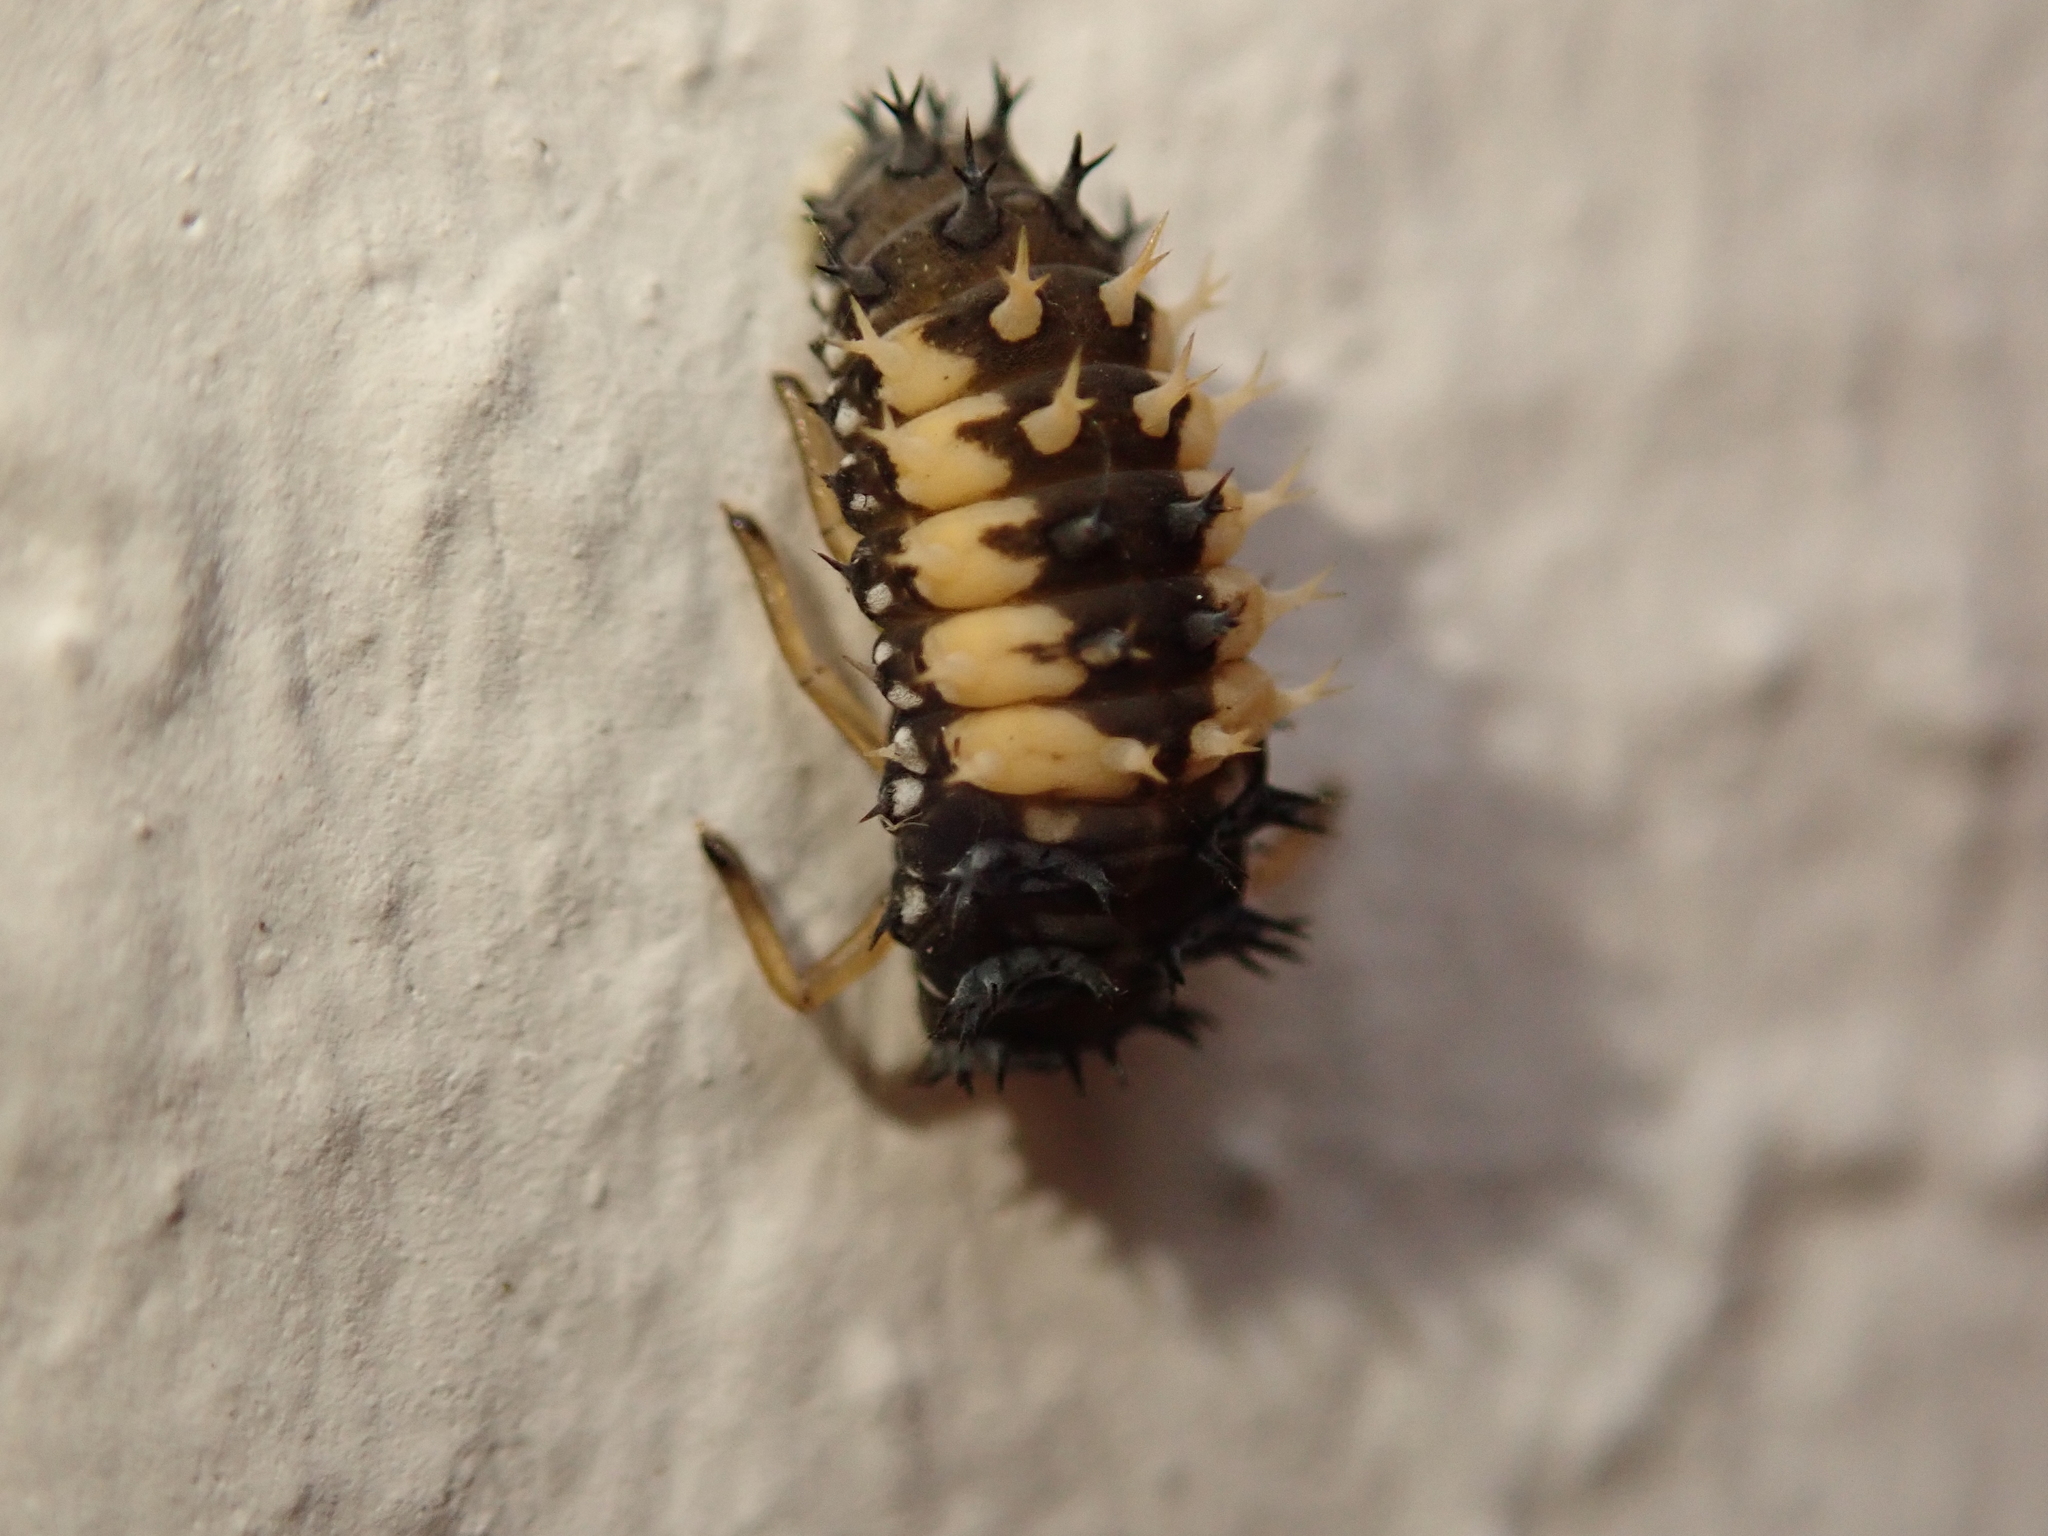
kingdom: Animalia
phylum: Arthropoda
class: Insecta
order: Coleoptera
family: Coccinellidae
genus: Harmonia
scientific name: Harmonia axyridis
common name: Harlequin ladybird
